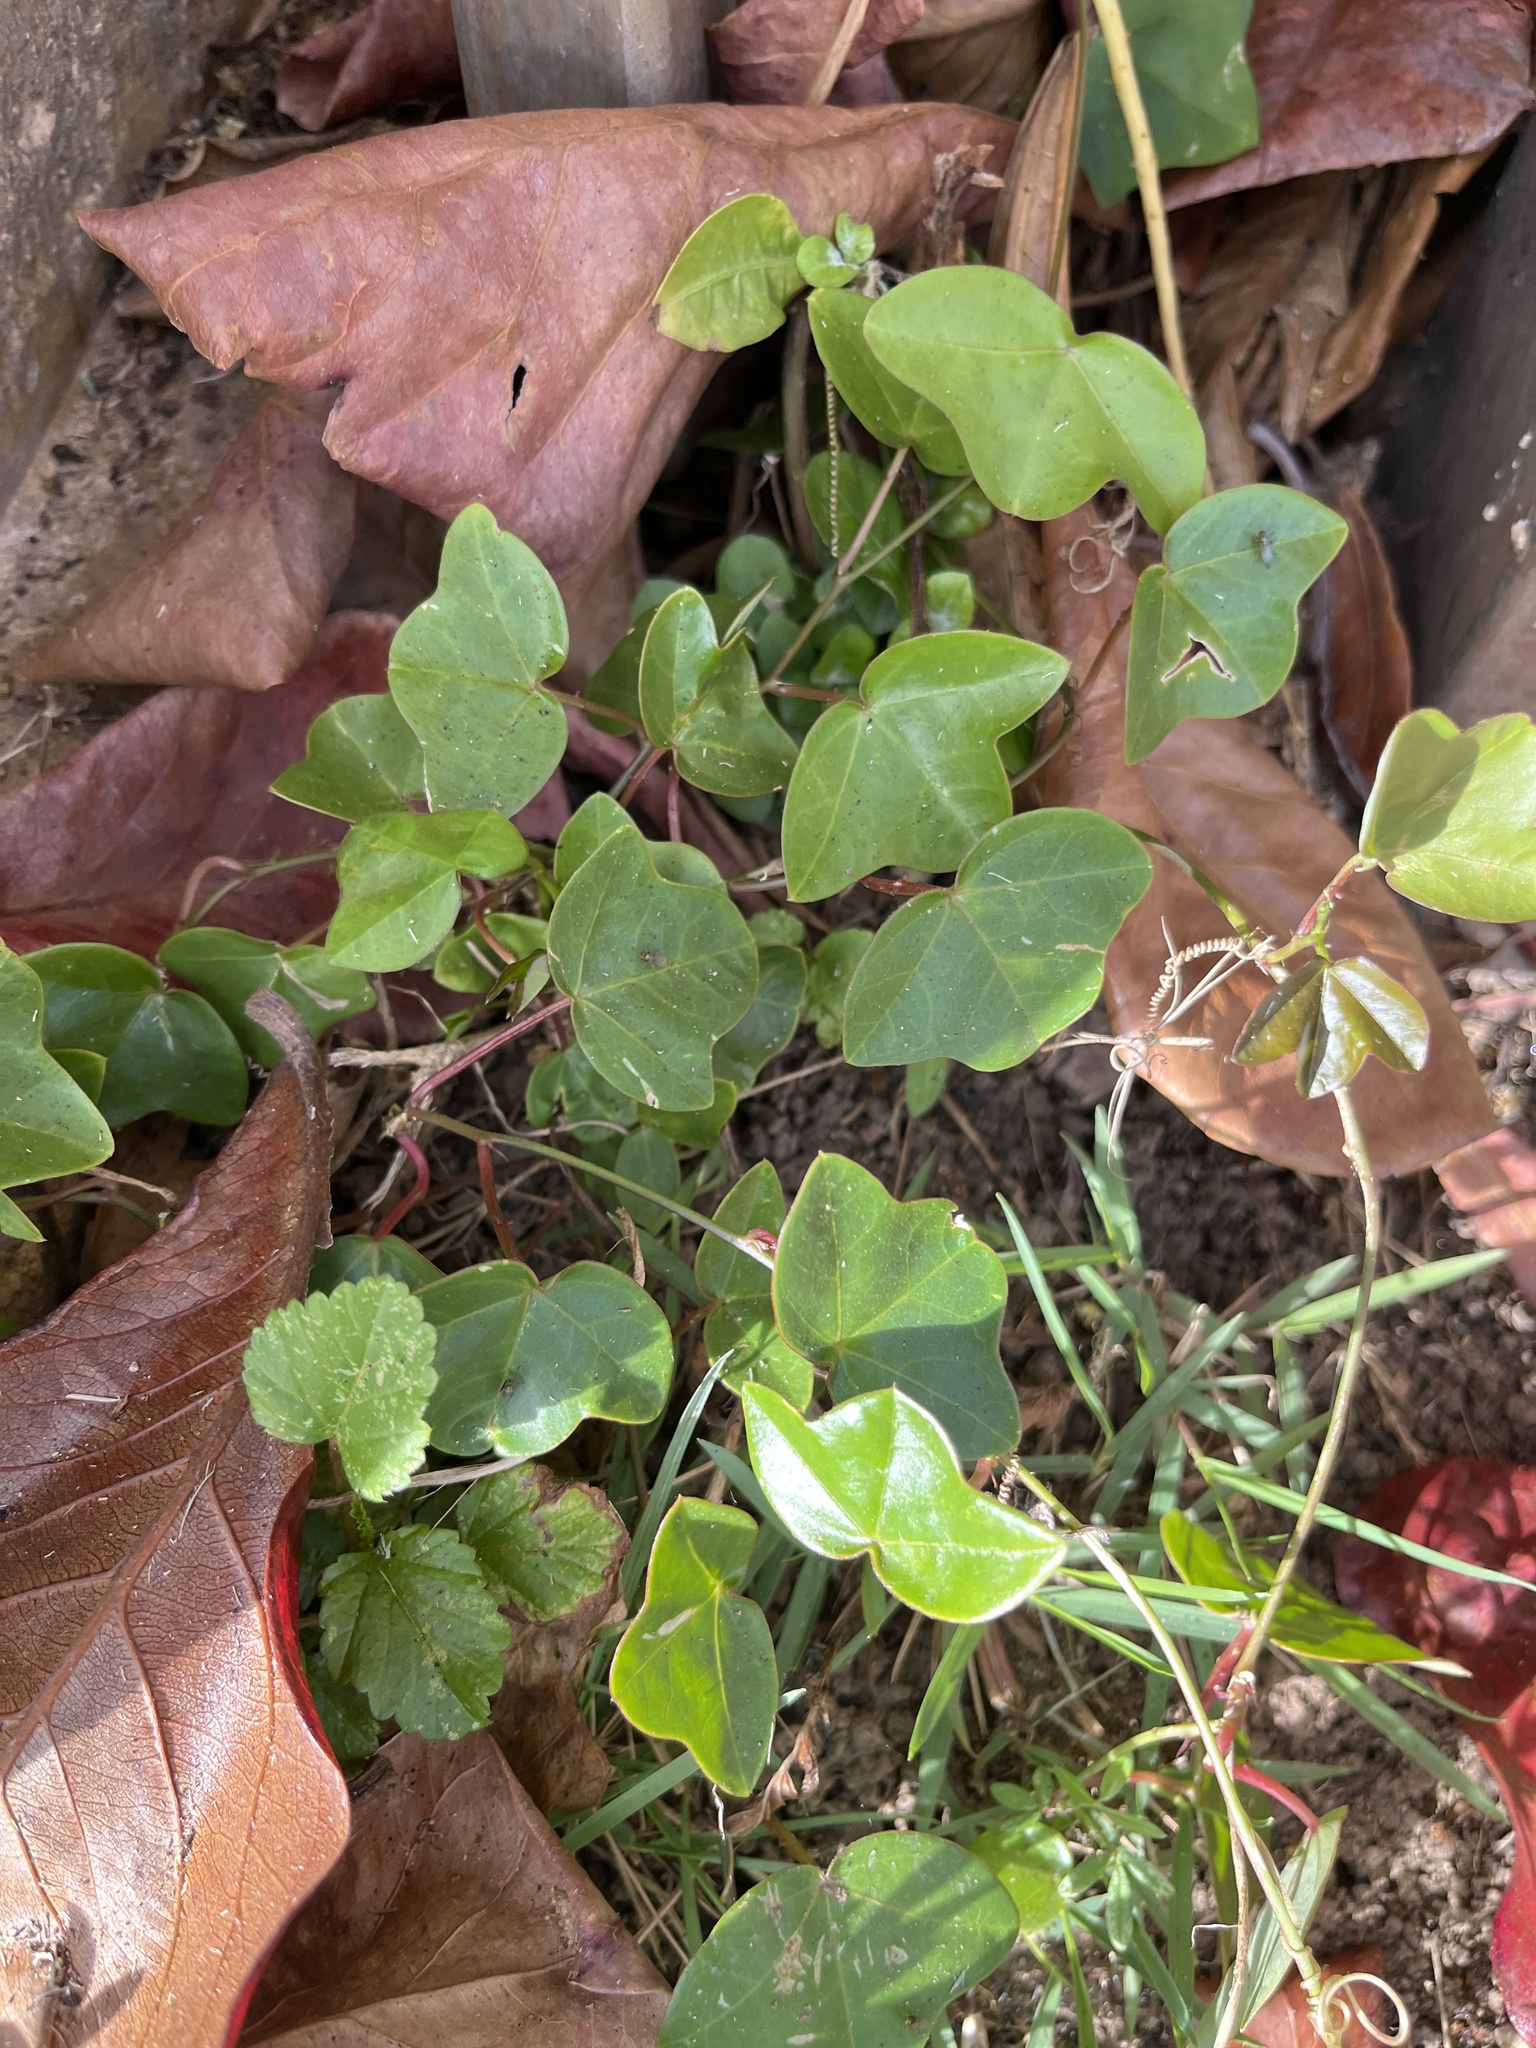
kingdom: Plantae
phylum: Tracheophyta
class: Magnoliopsida
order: Malpighiales
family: Passifloraceae
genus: Passiflora
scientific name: Passiflora suberosa
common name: Wild passionfruit
